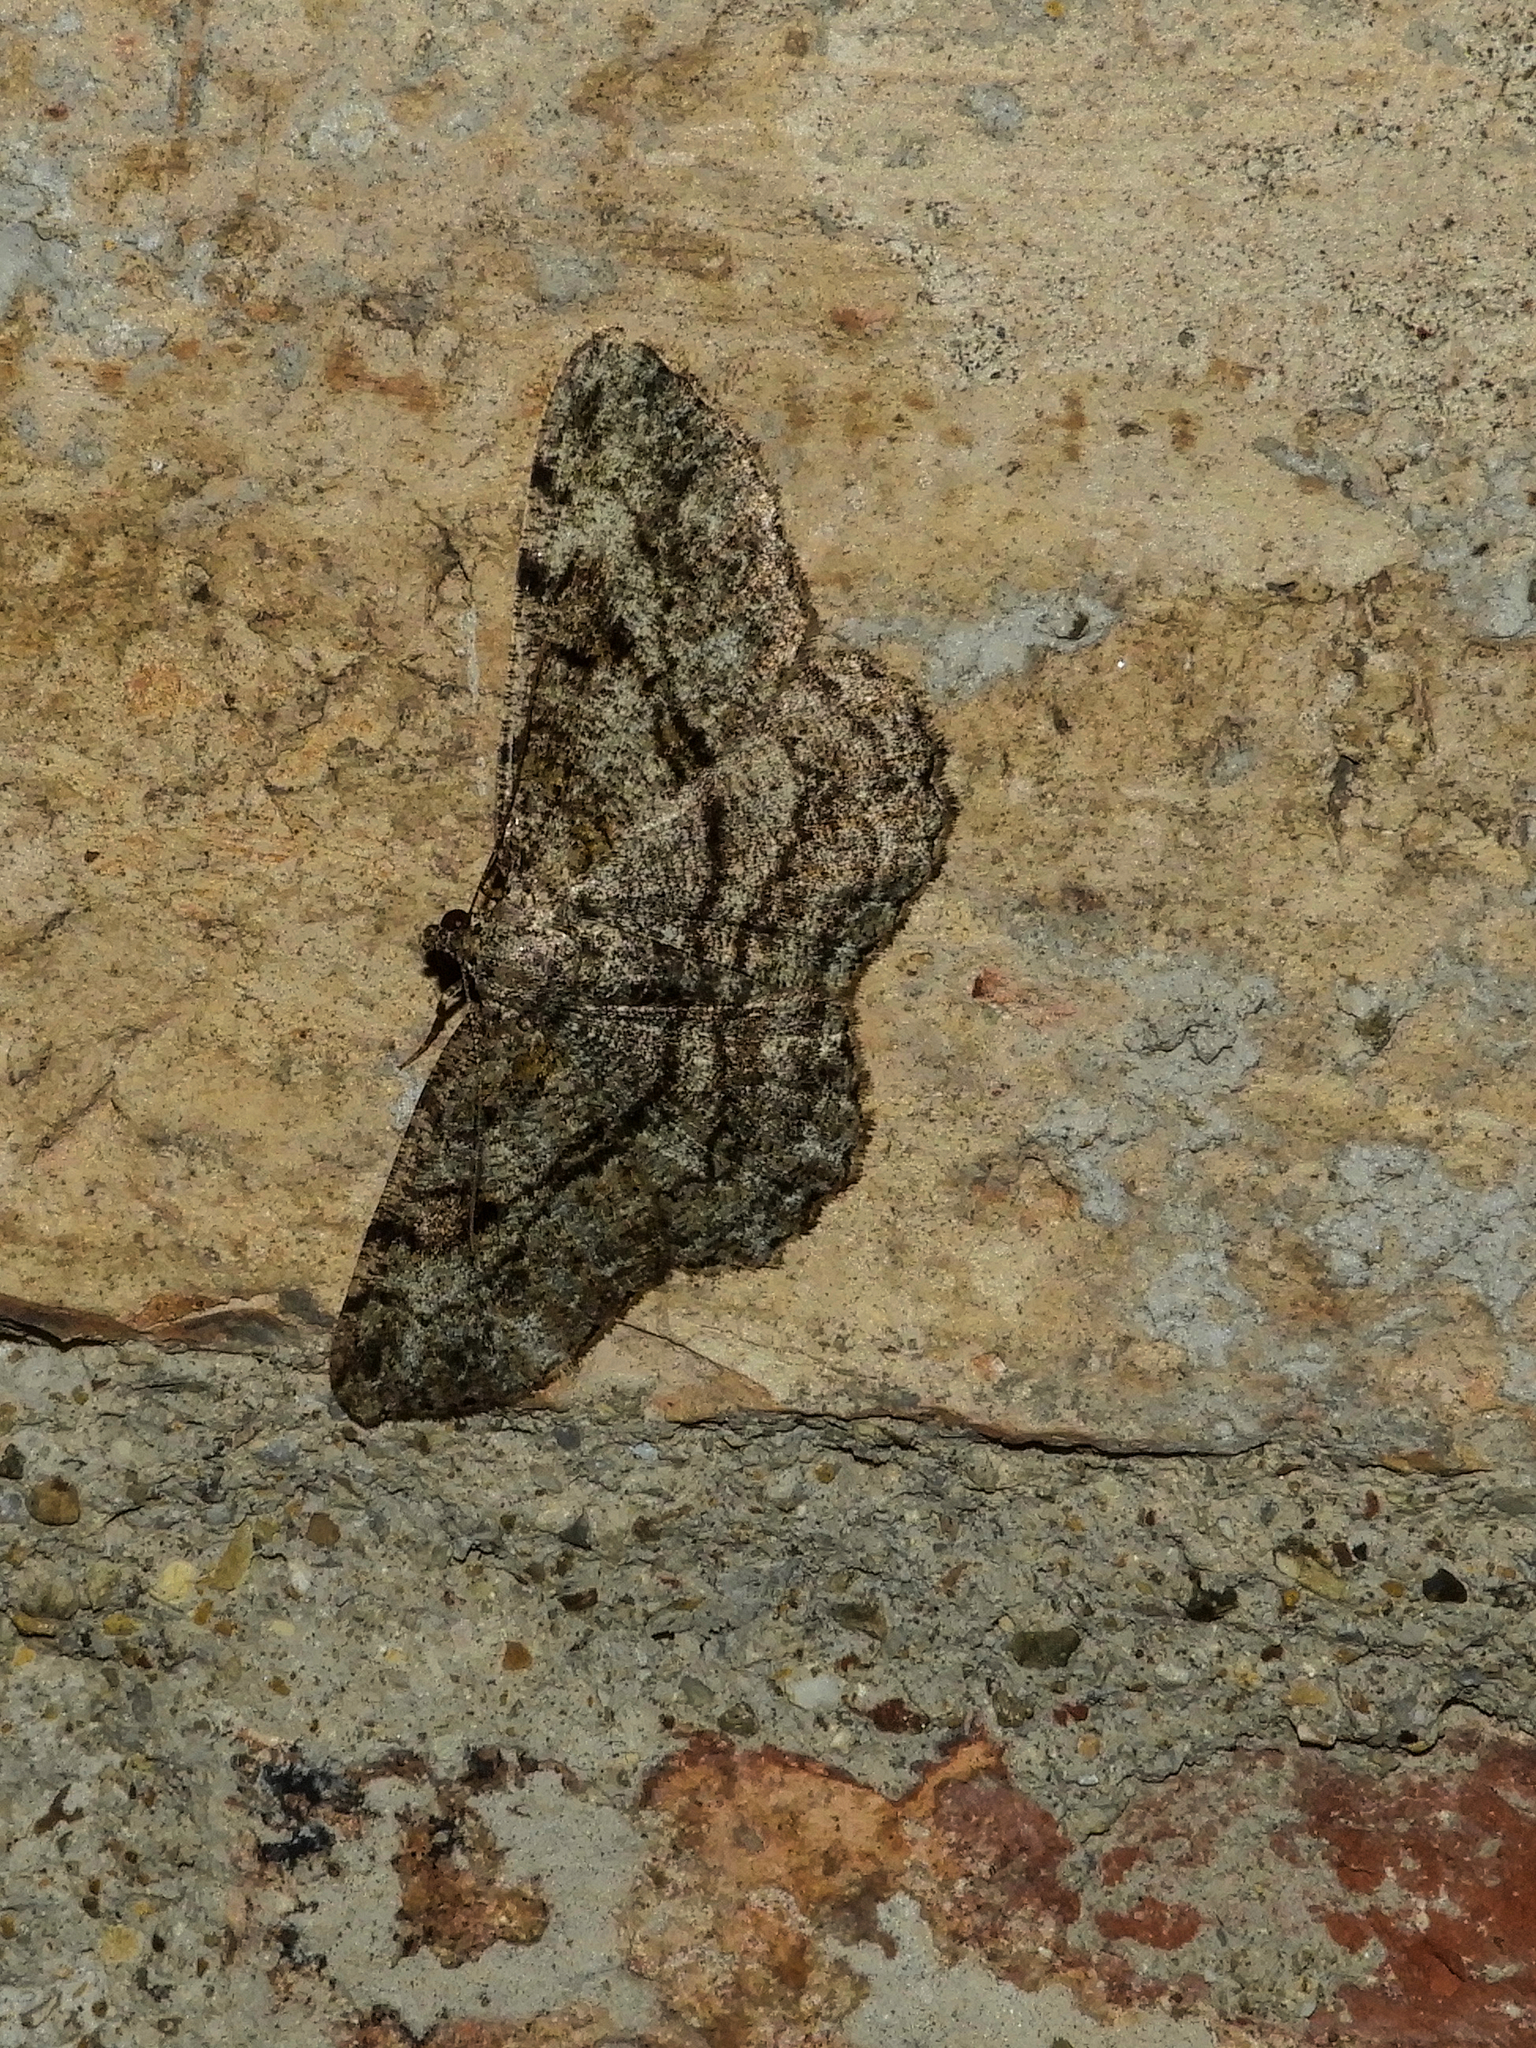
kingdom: Animalia
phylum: Arthropoda
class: Insecta
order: Lepidoptera
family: Geometridae
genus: Peribatodes
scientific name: Peribatodes rhomboidaria
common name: Willow beauty
